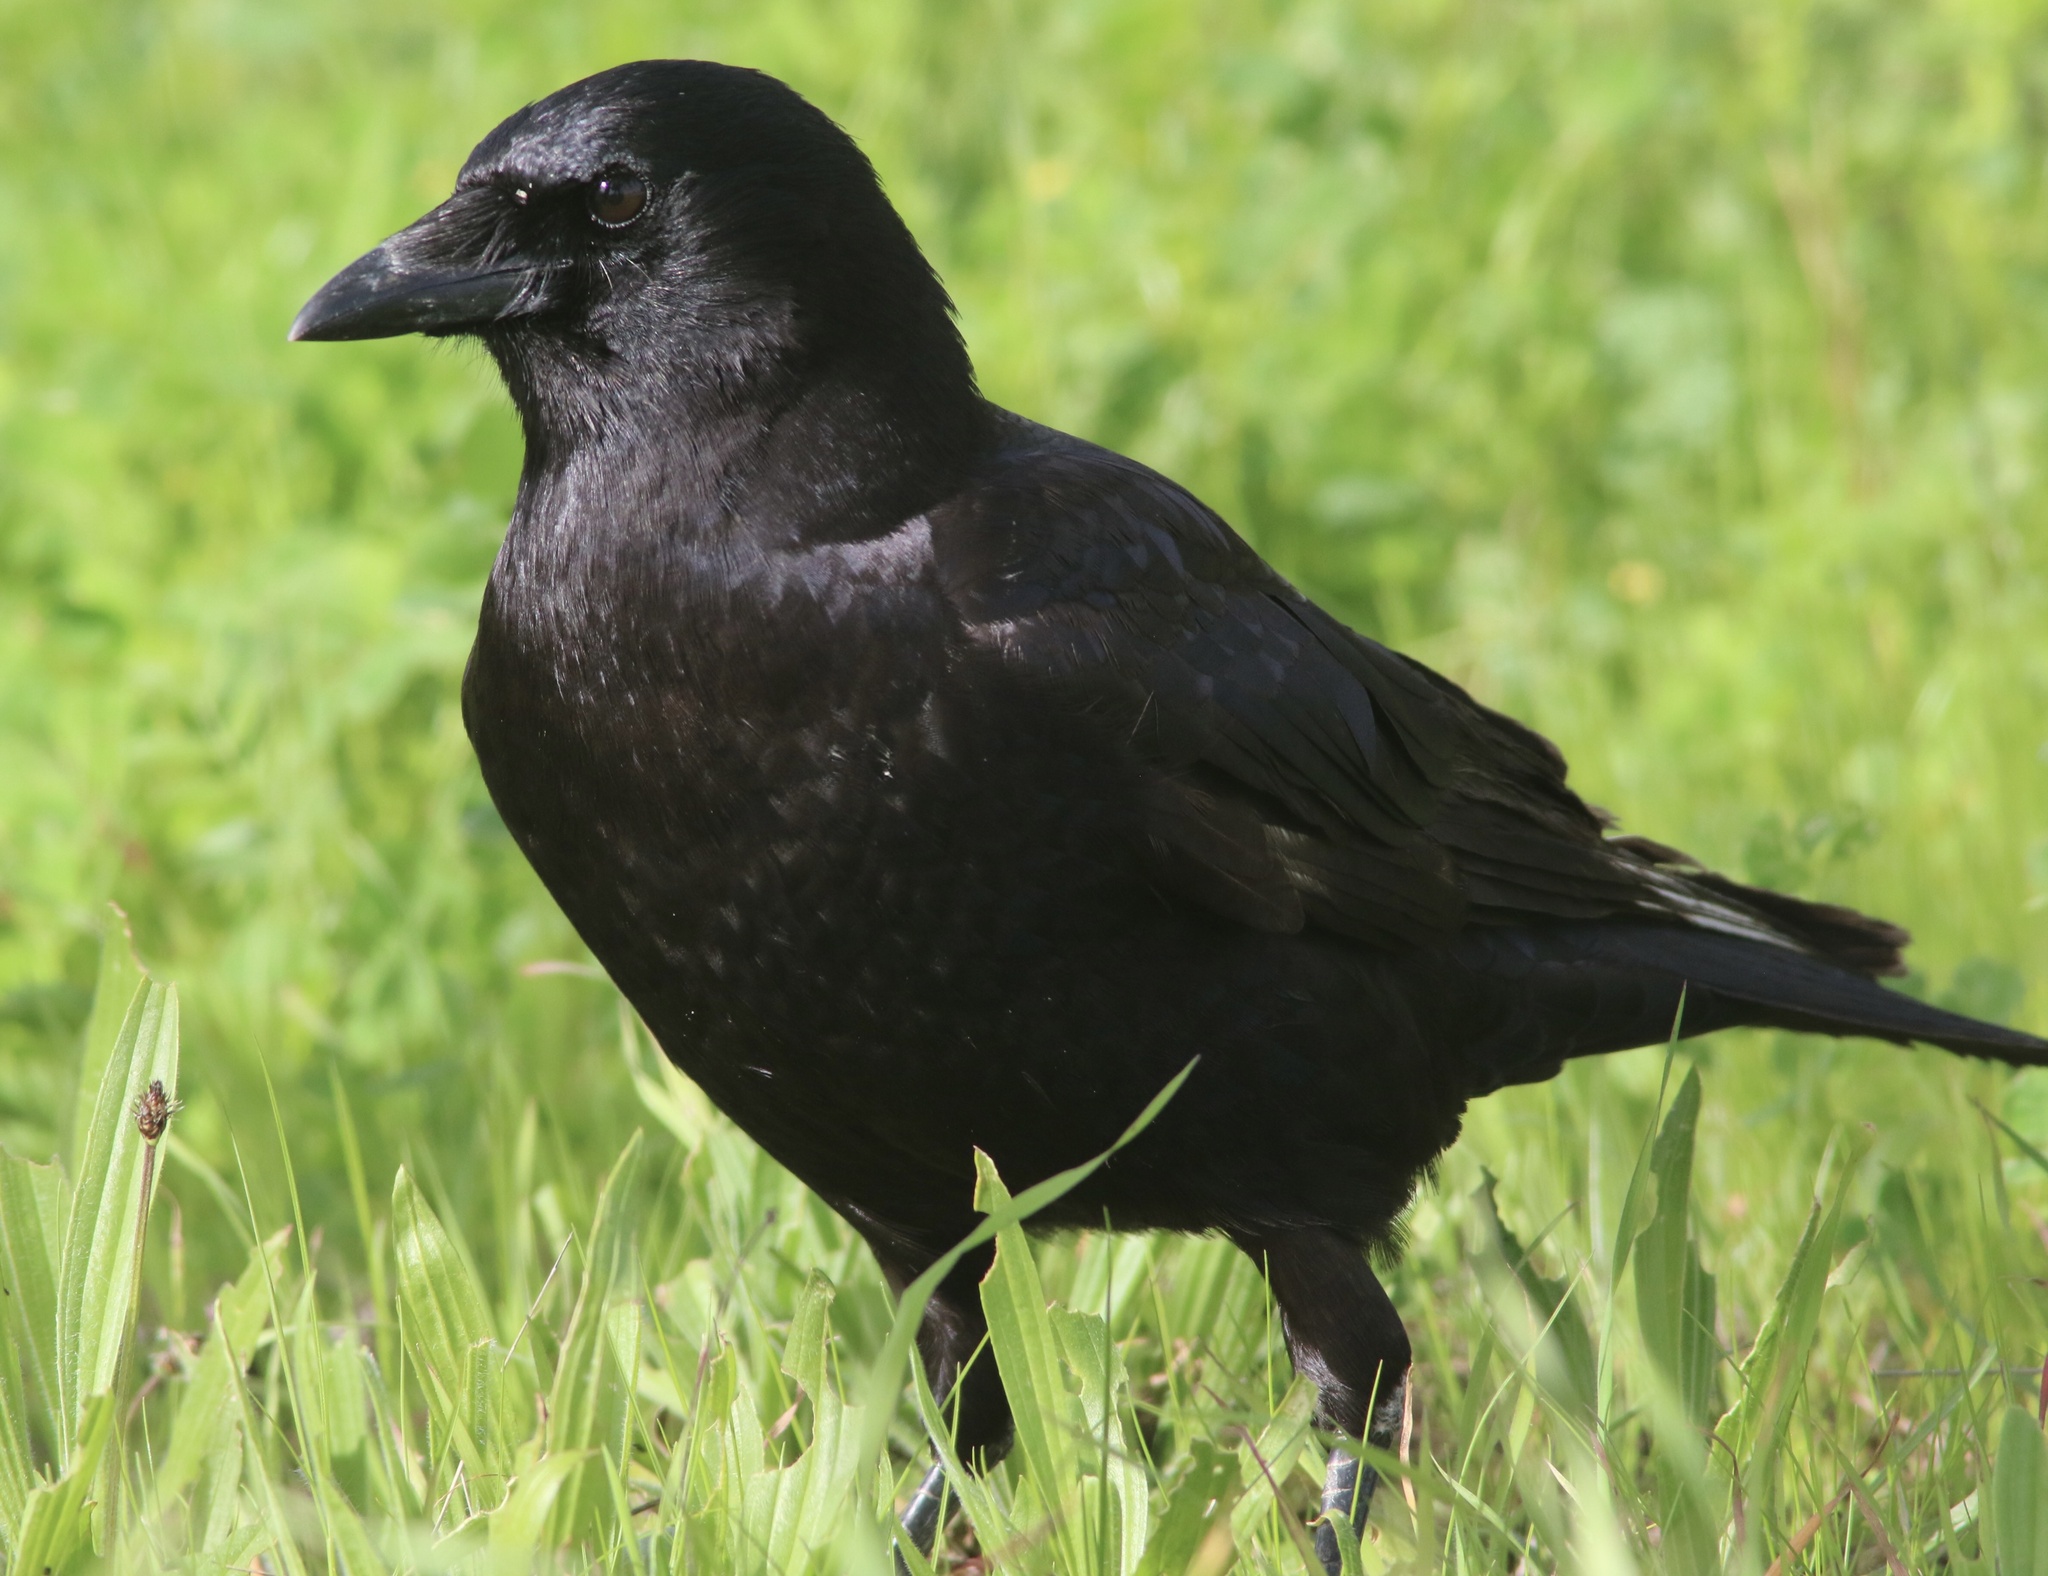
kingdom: Animalia
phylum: Chordata
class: Aves
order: Passeriformes
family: Corvidae
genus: Corvus
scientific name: Corvus brachyrhynchos
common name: American crow
